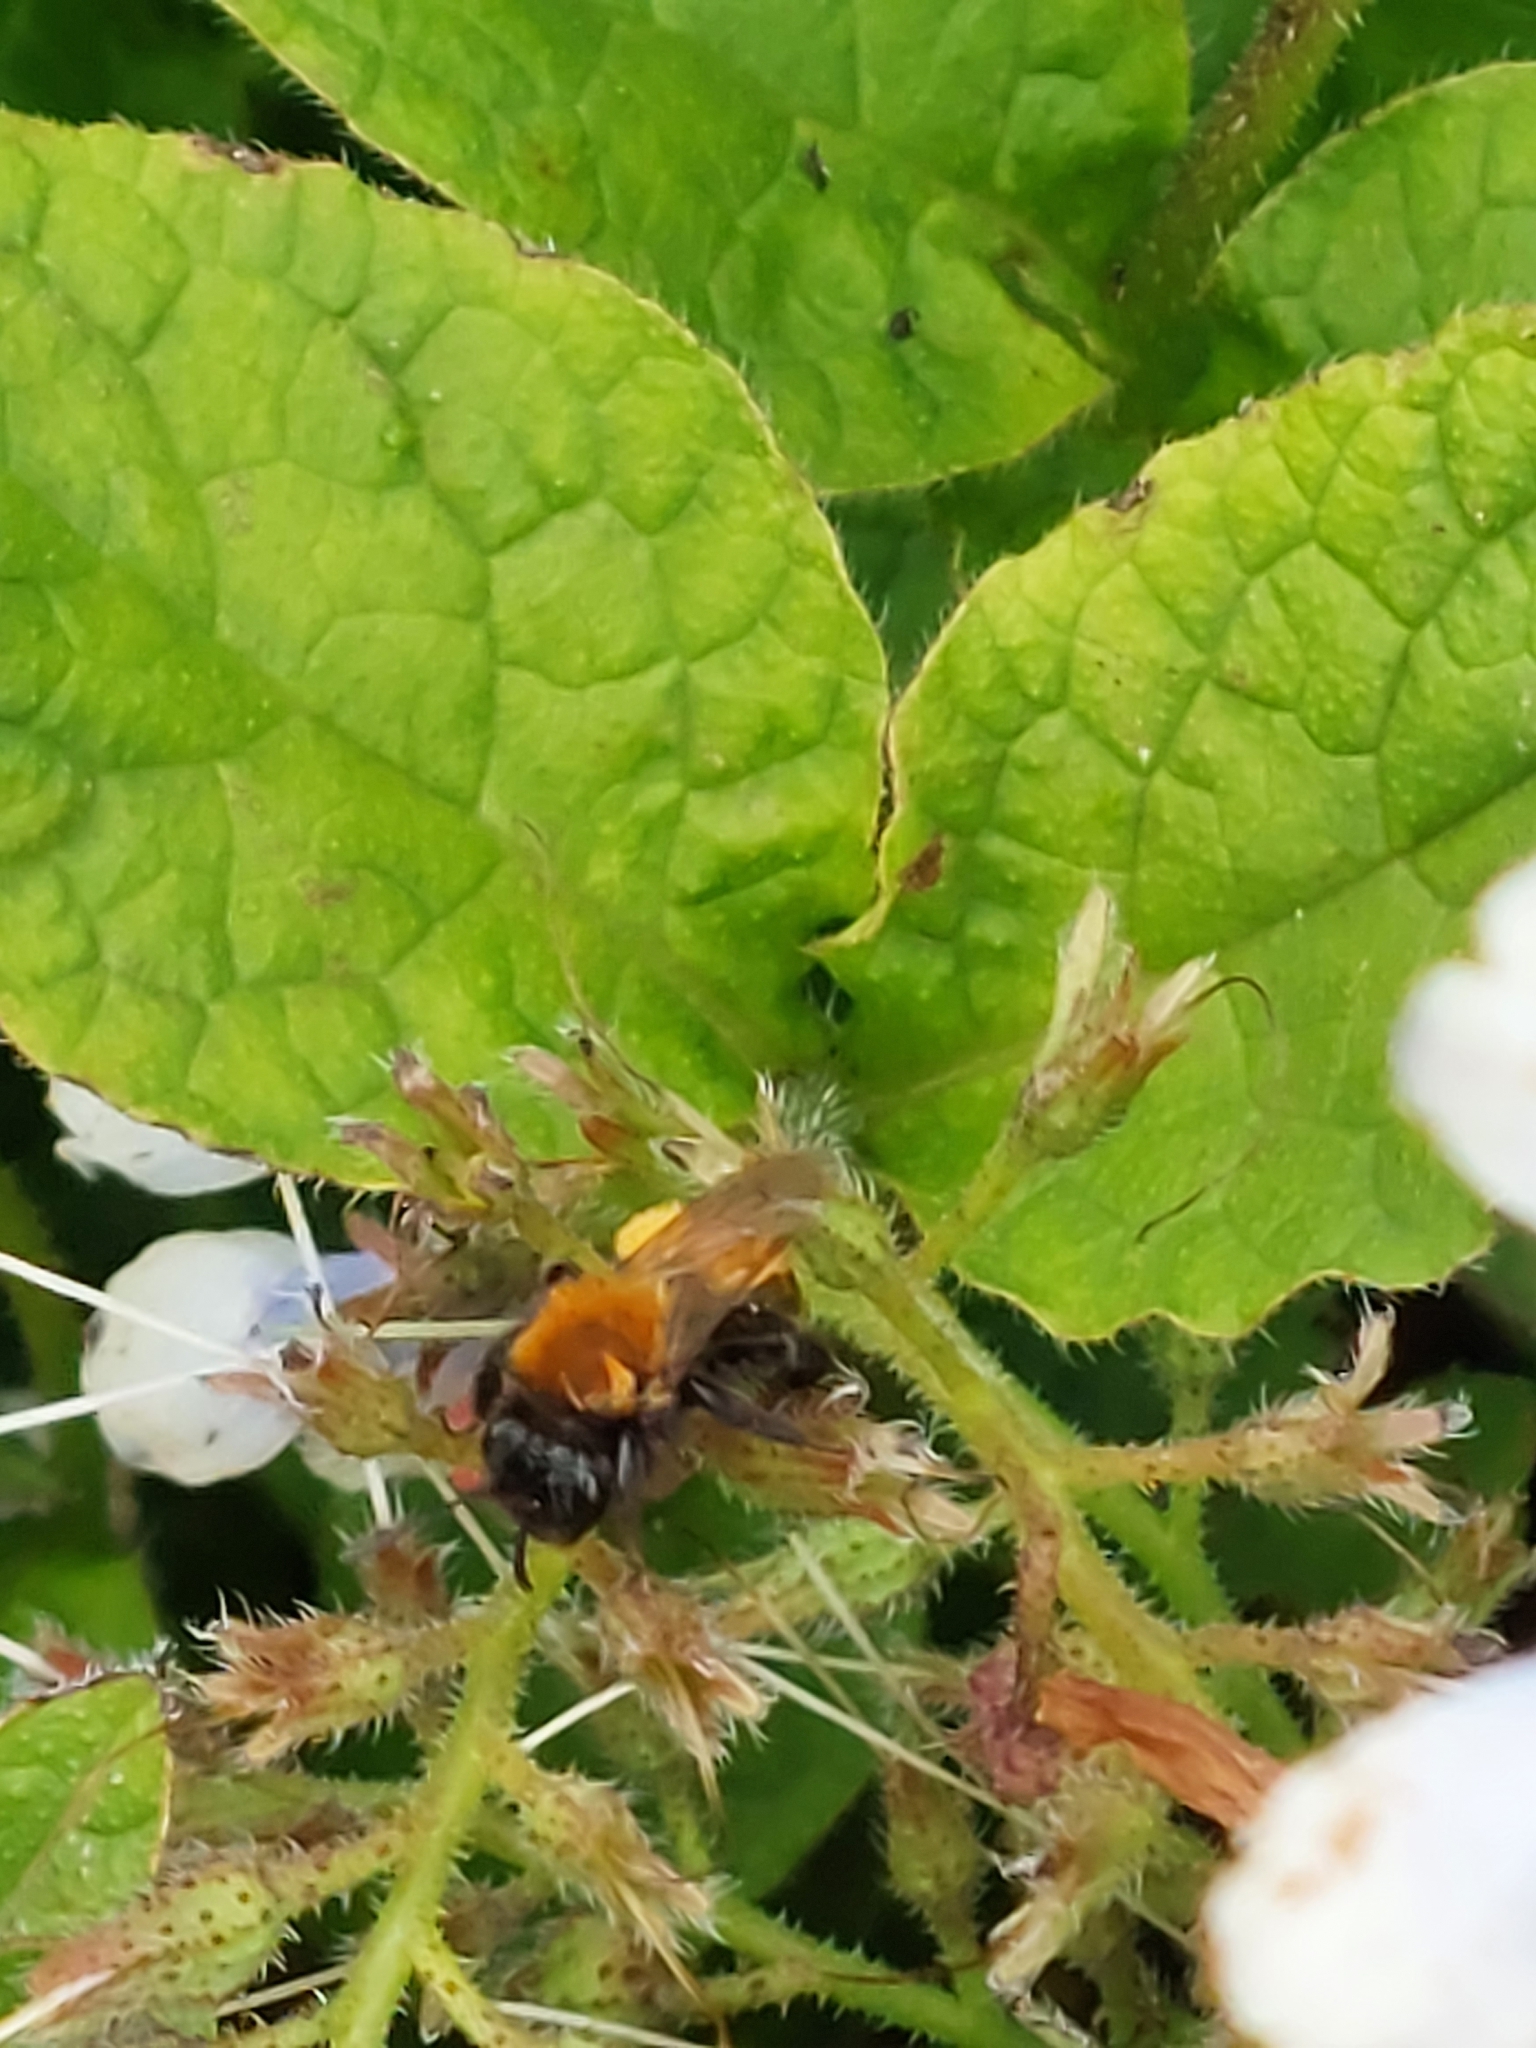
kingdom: Animalia
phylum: Arthropoda
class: Insecta
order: Hymenoptera
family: Andrenidae
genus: Andrena
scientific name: Andrena fulva
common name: Tawny mining bee
